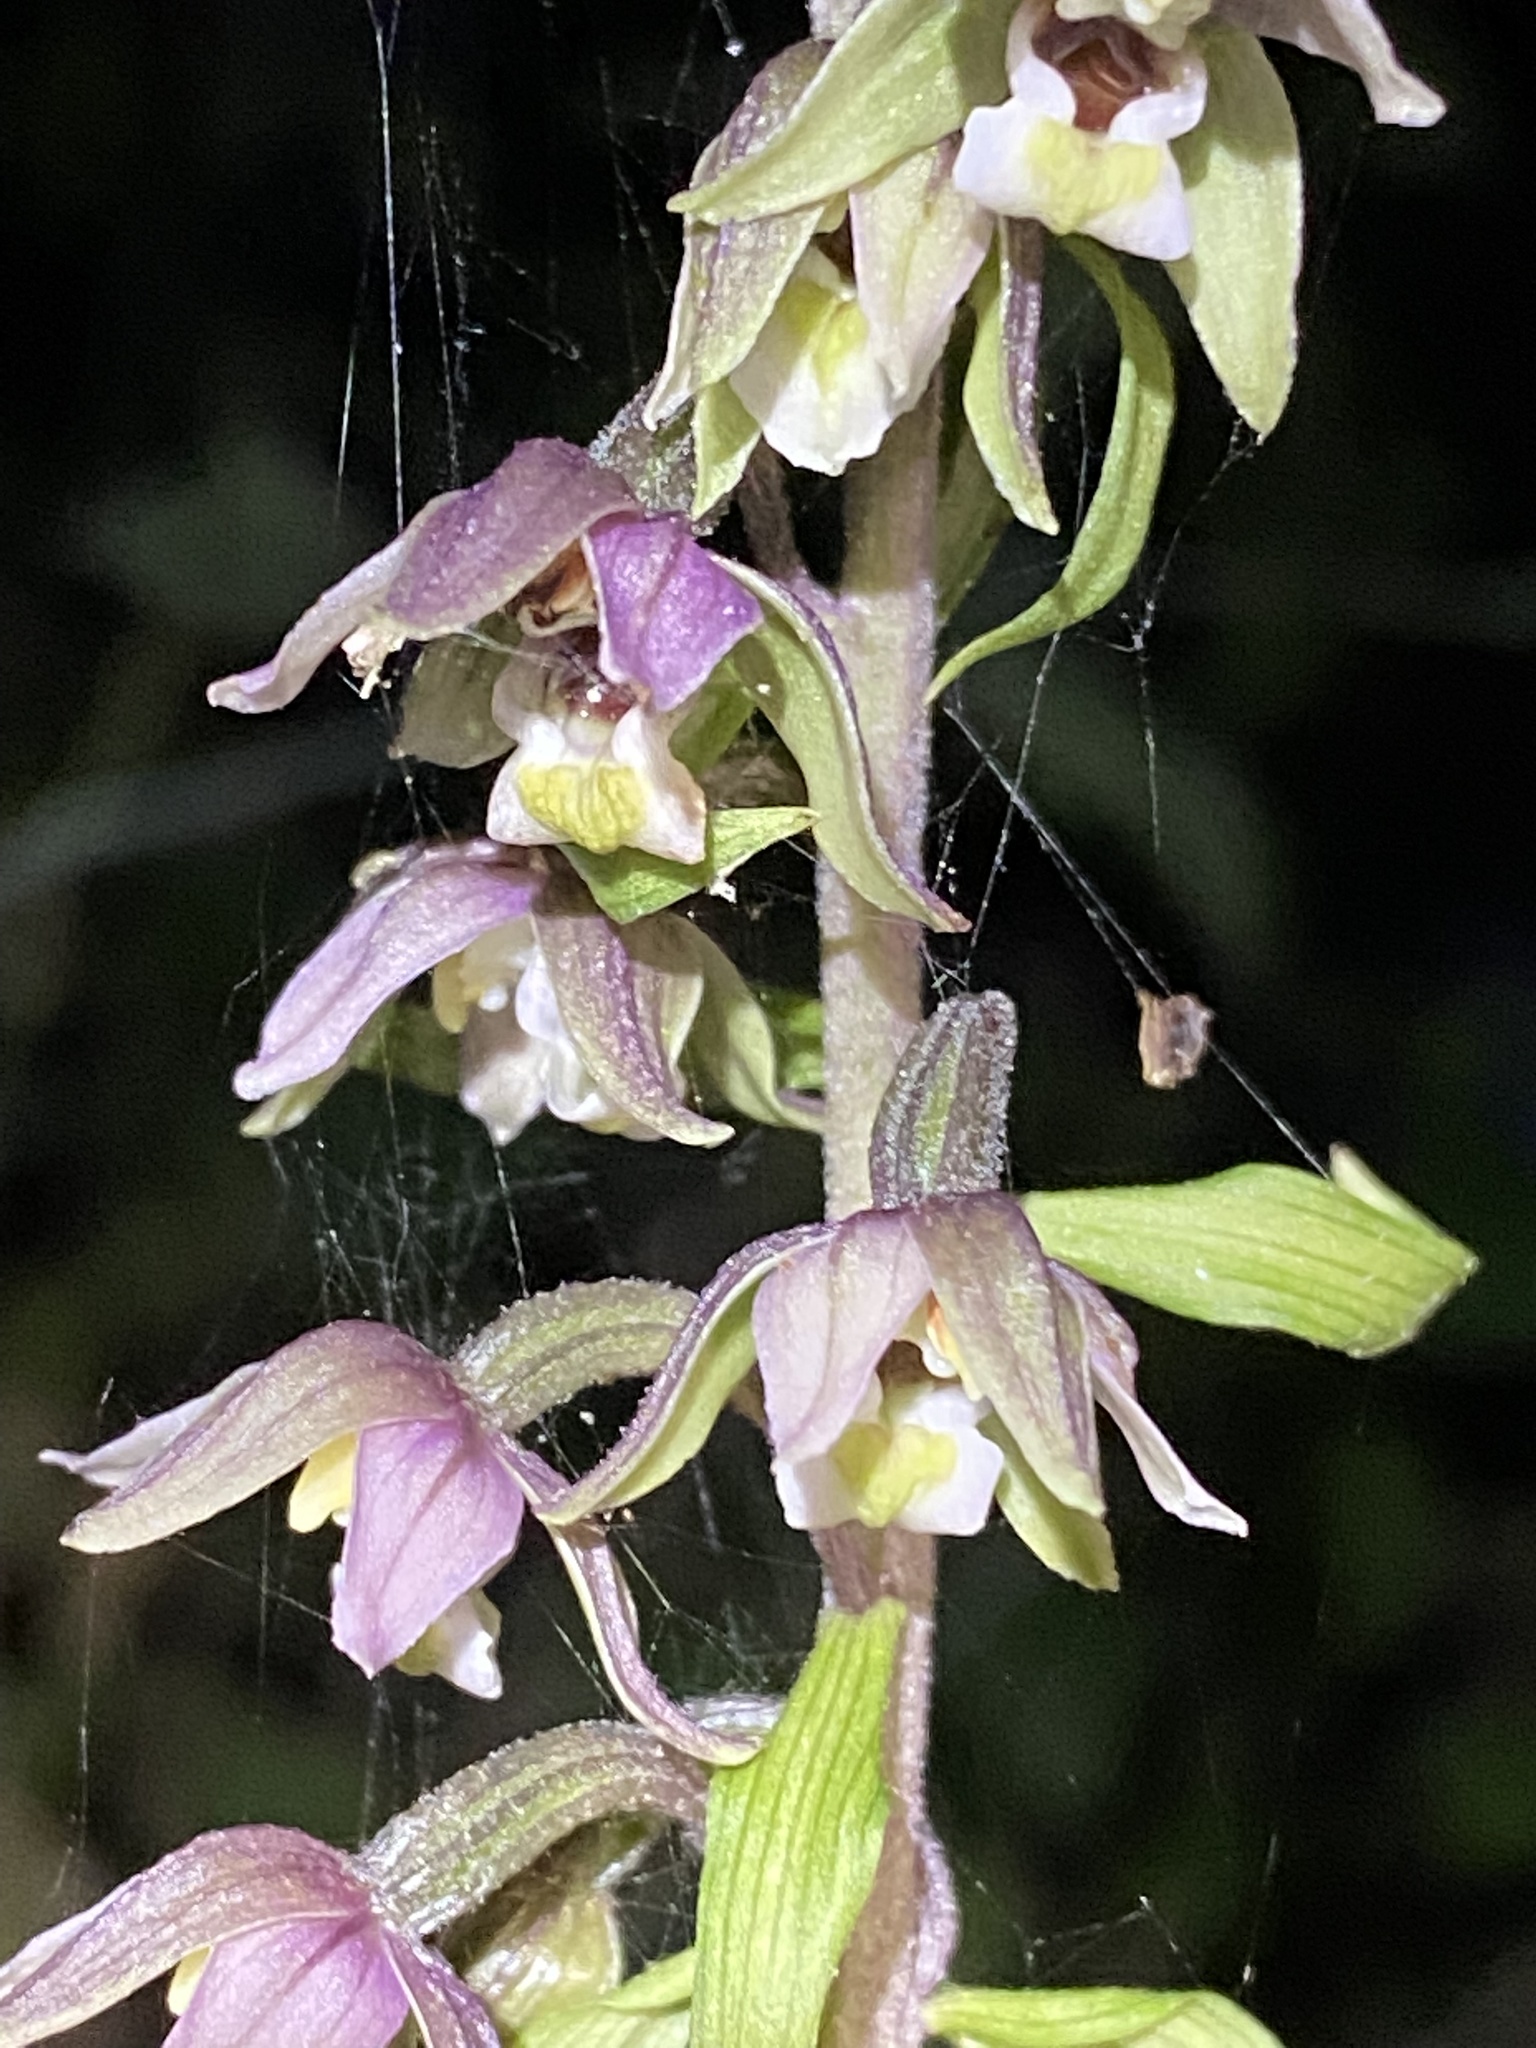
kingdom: Plantae
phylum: Tracheophyta
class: Liliopsida
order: Asparagales
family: Orchidaceae
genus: Epipactis
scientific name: Epipactis helleborine
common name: Broad-leaved helleborine
